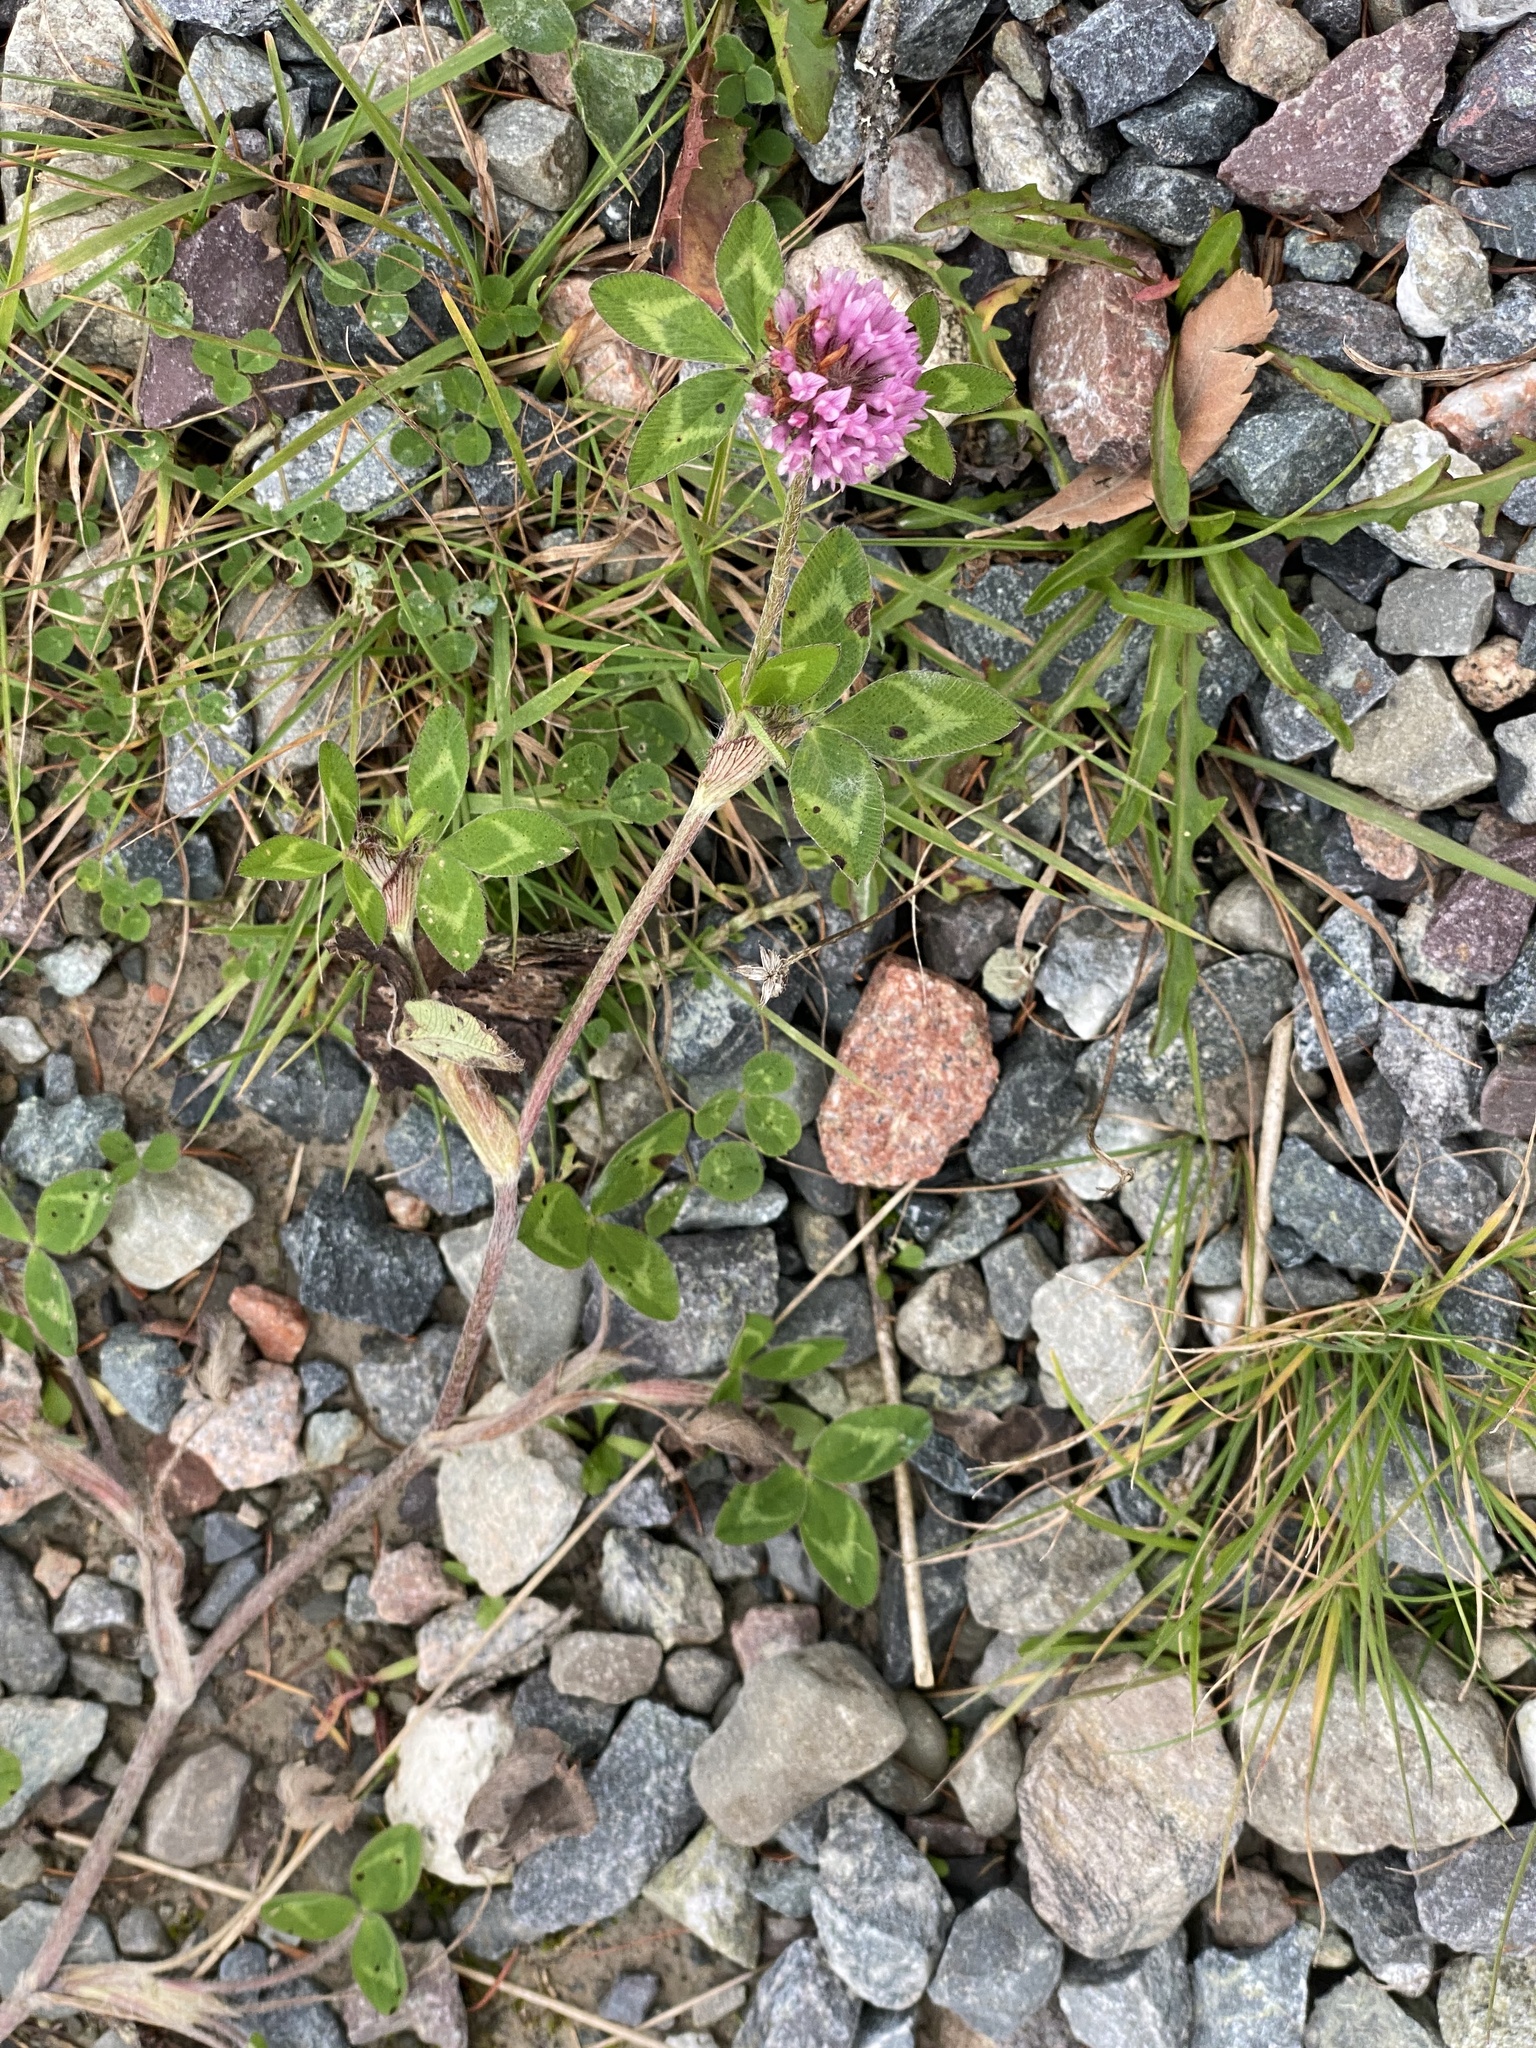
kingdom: Plantae
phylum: Tracheophyta
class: Magnoliopsida
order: Fabales
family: Fabaceae
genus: Trifolium
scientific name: Trifolium pratense
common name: Red clover
